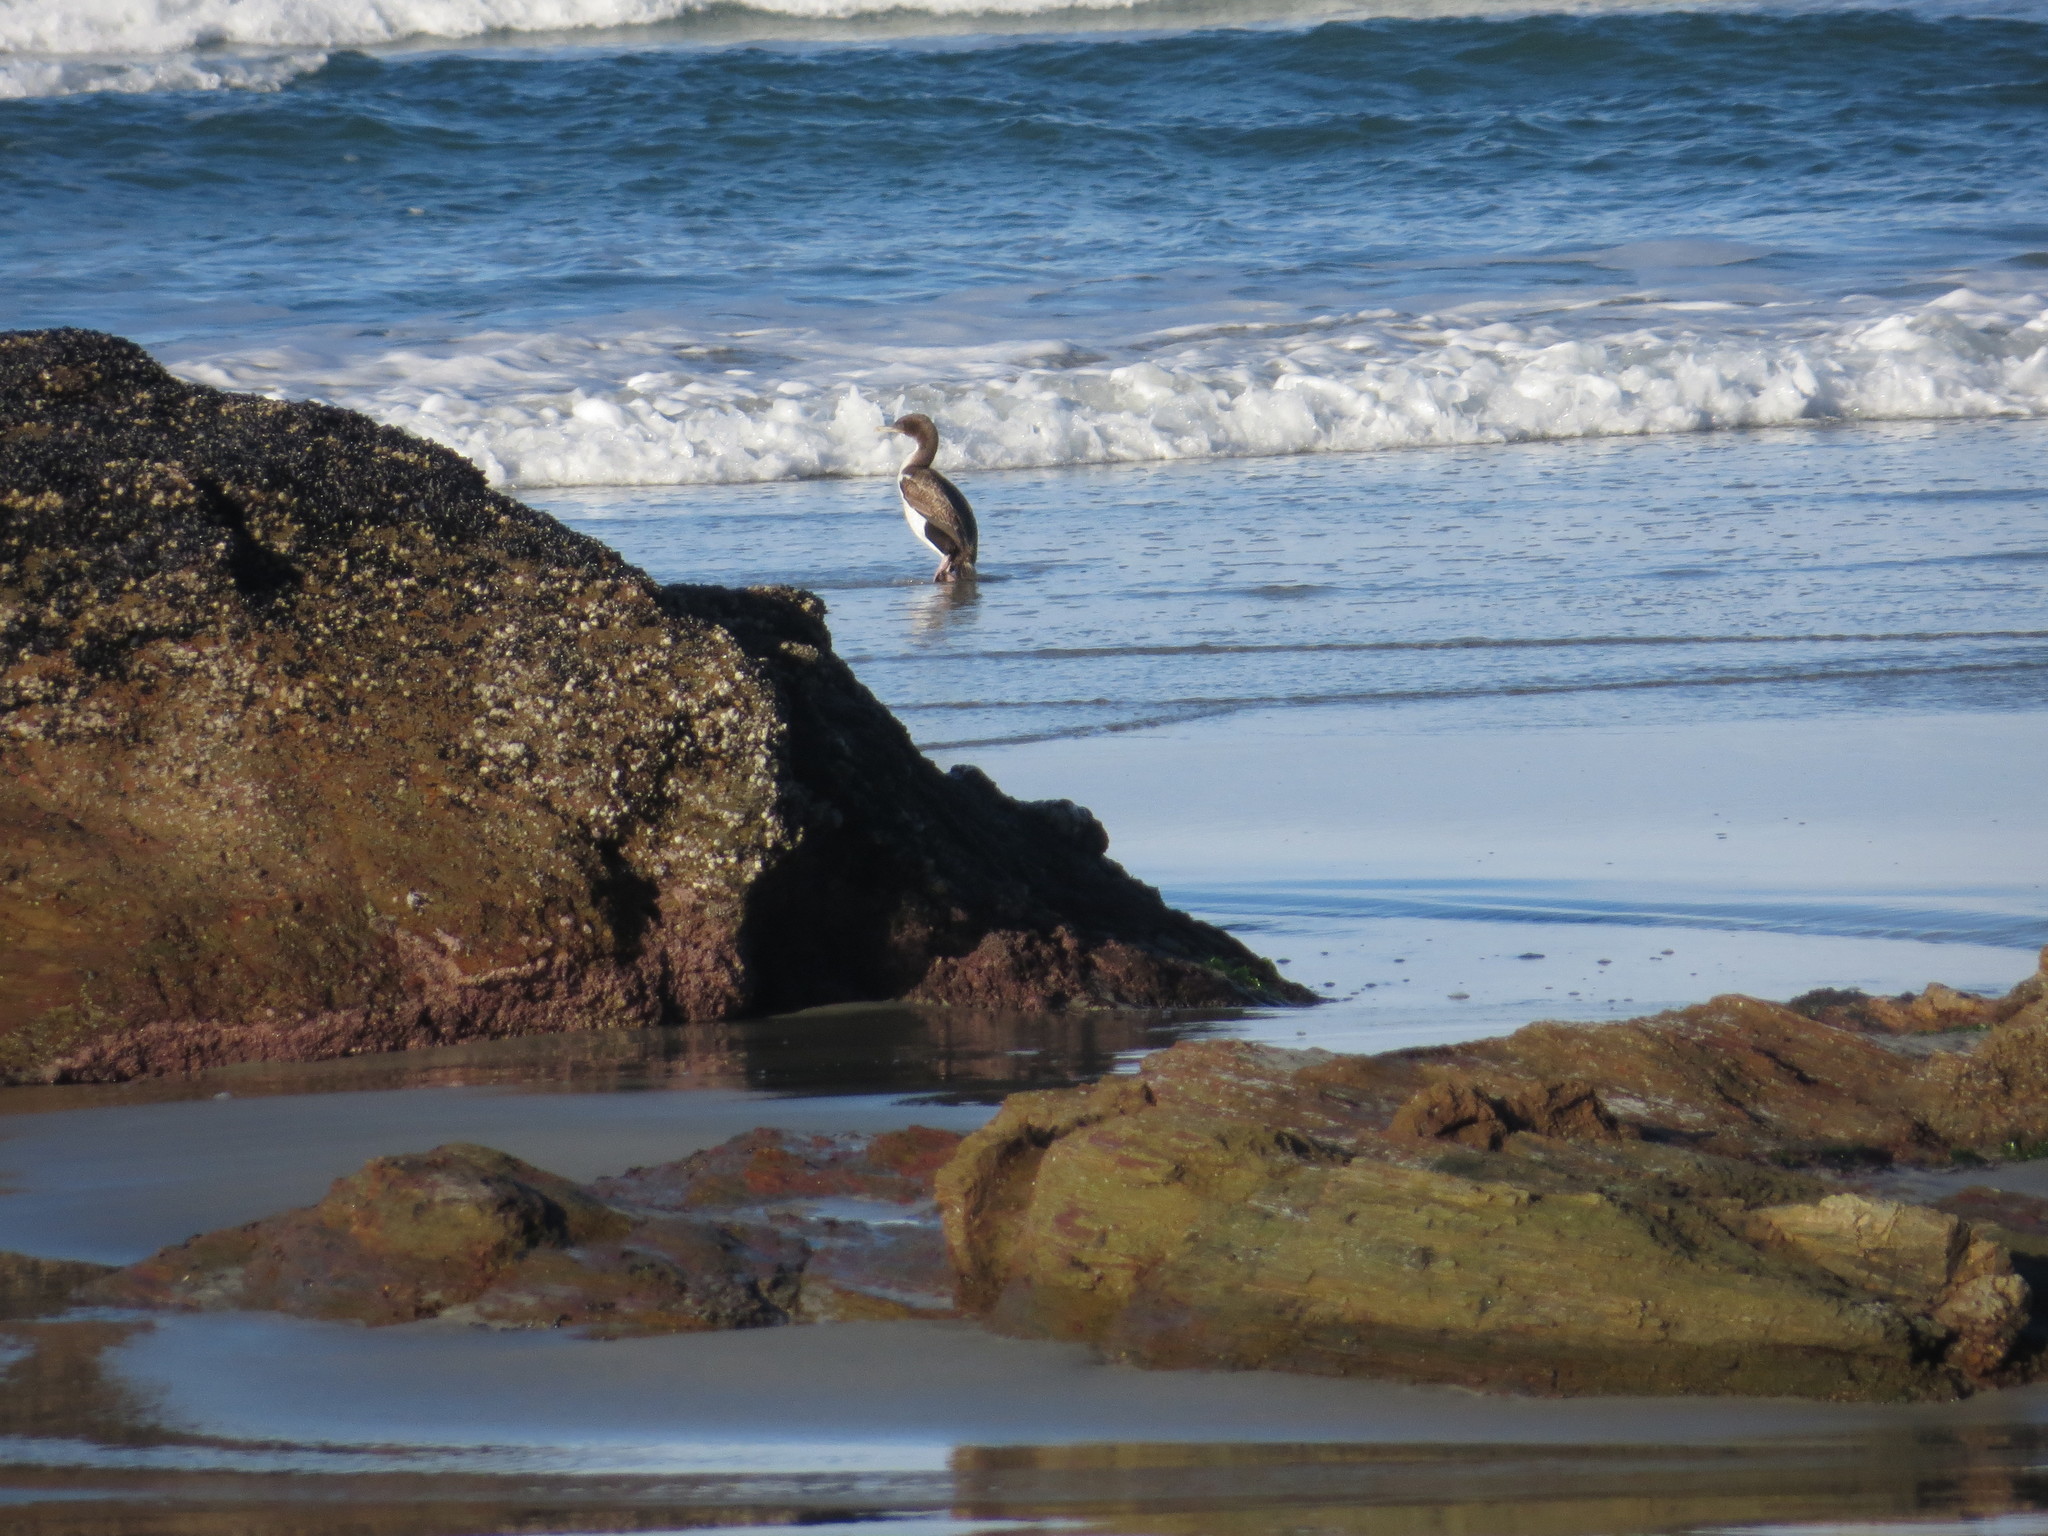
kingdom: Animalia
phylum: Chordata
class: Aves
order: Suliformes
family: Phalacrocoracidae
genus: Leucocarbo
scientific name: Leucocarbo chalconotus
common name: Stewart shag
